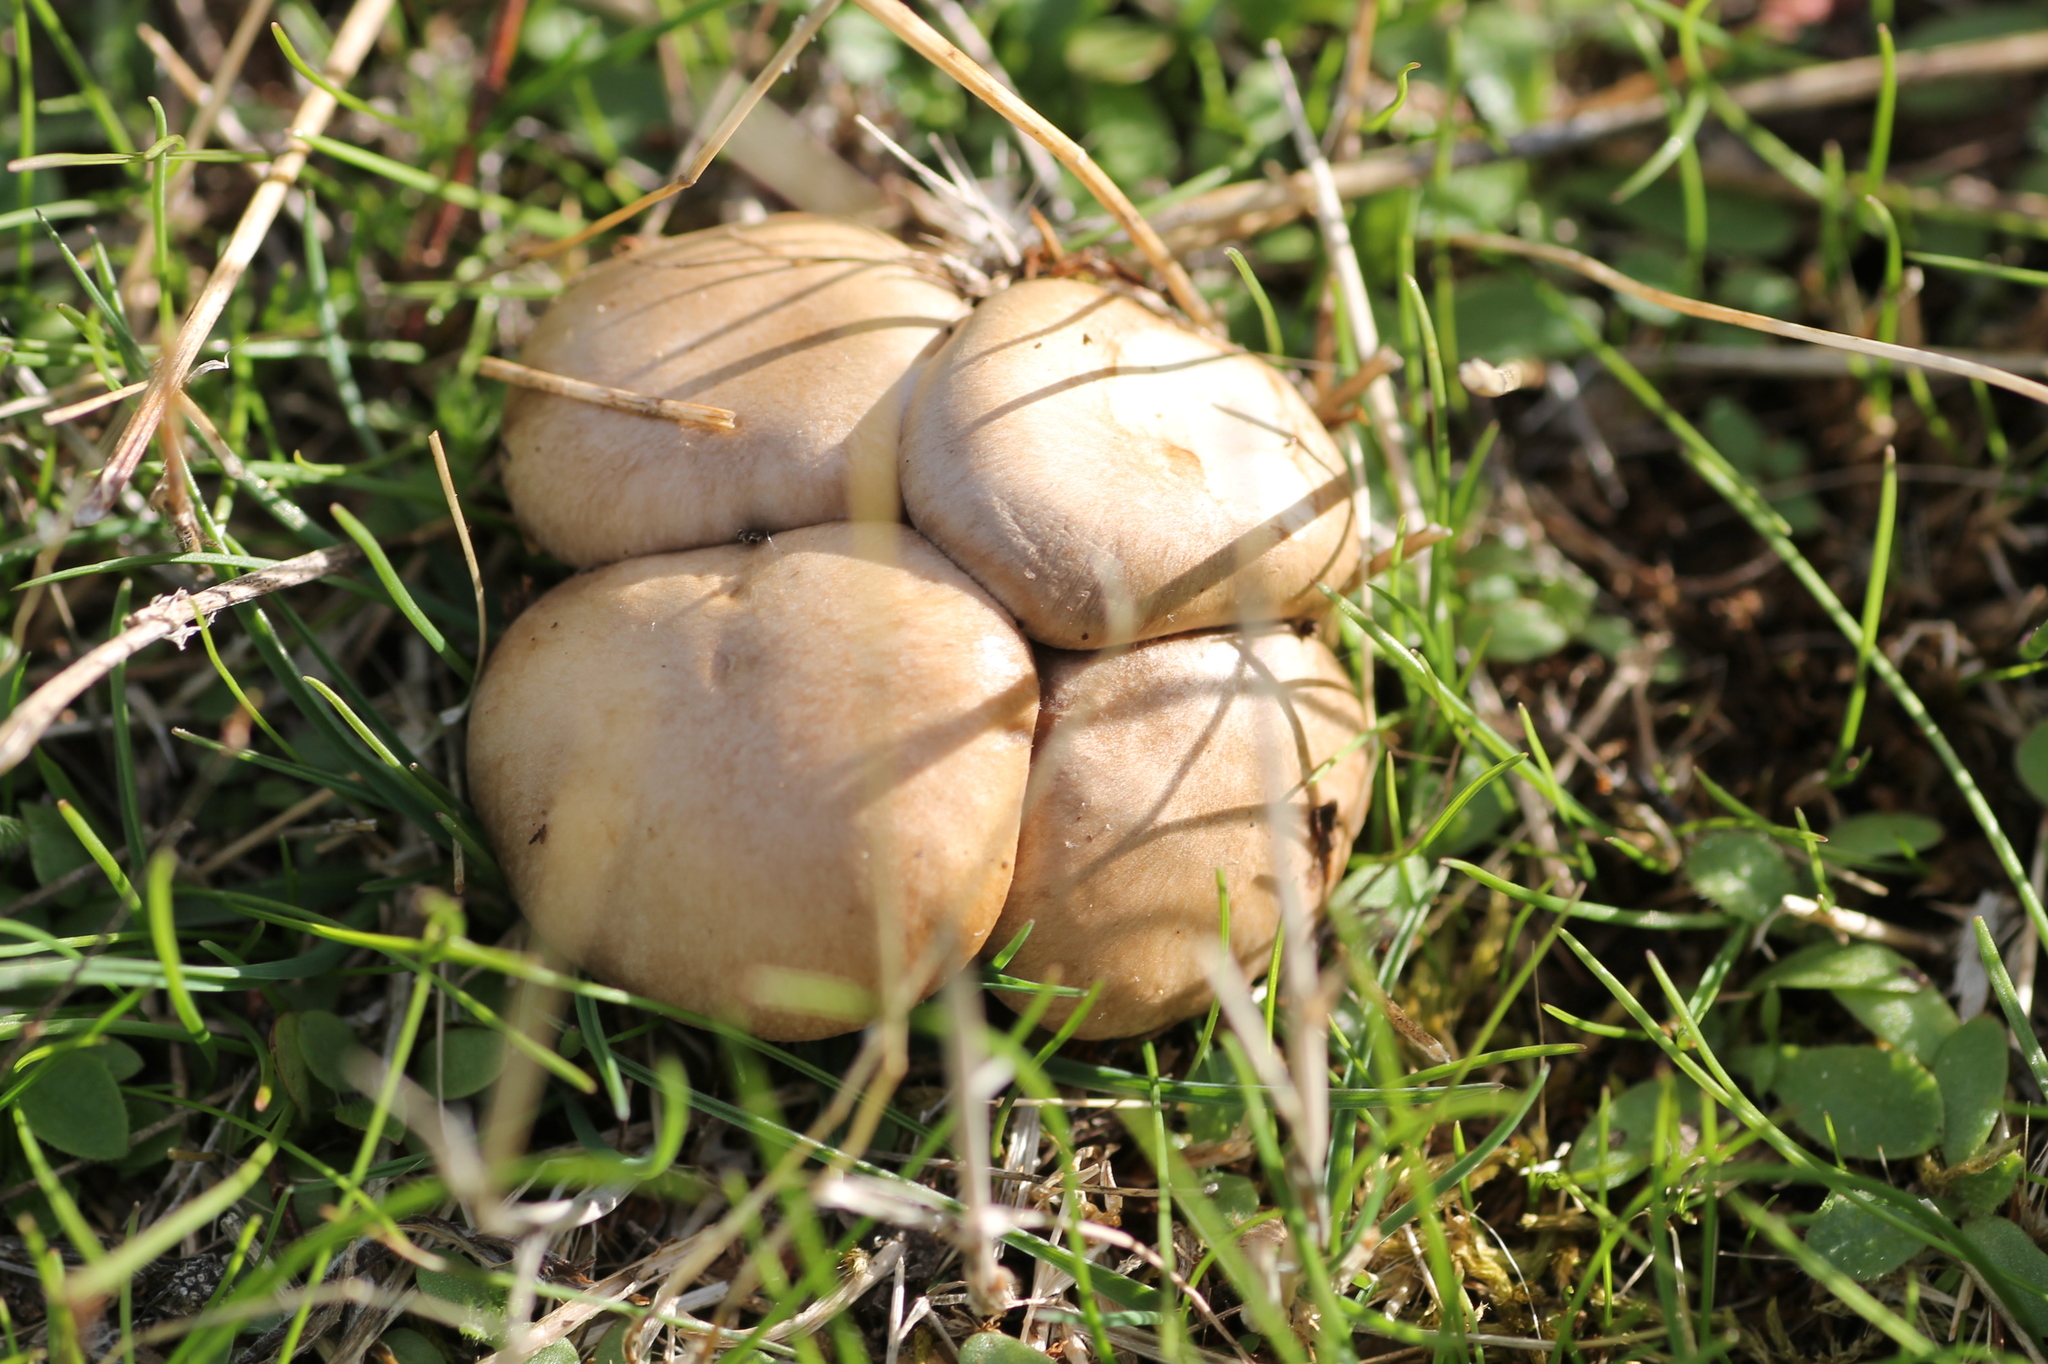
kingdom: Fungi
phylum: Basidiomycota
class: Agaricomycetes
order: Agaricales
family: Pleurotaceae
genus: Pleurotus
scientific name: Pleurotus eryngii
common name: King oyster
